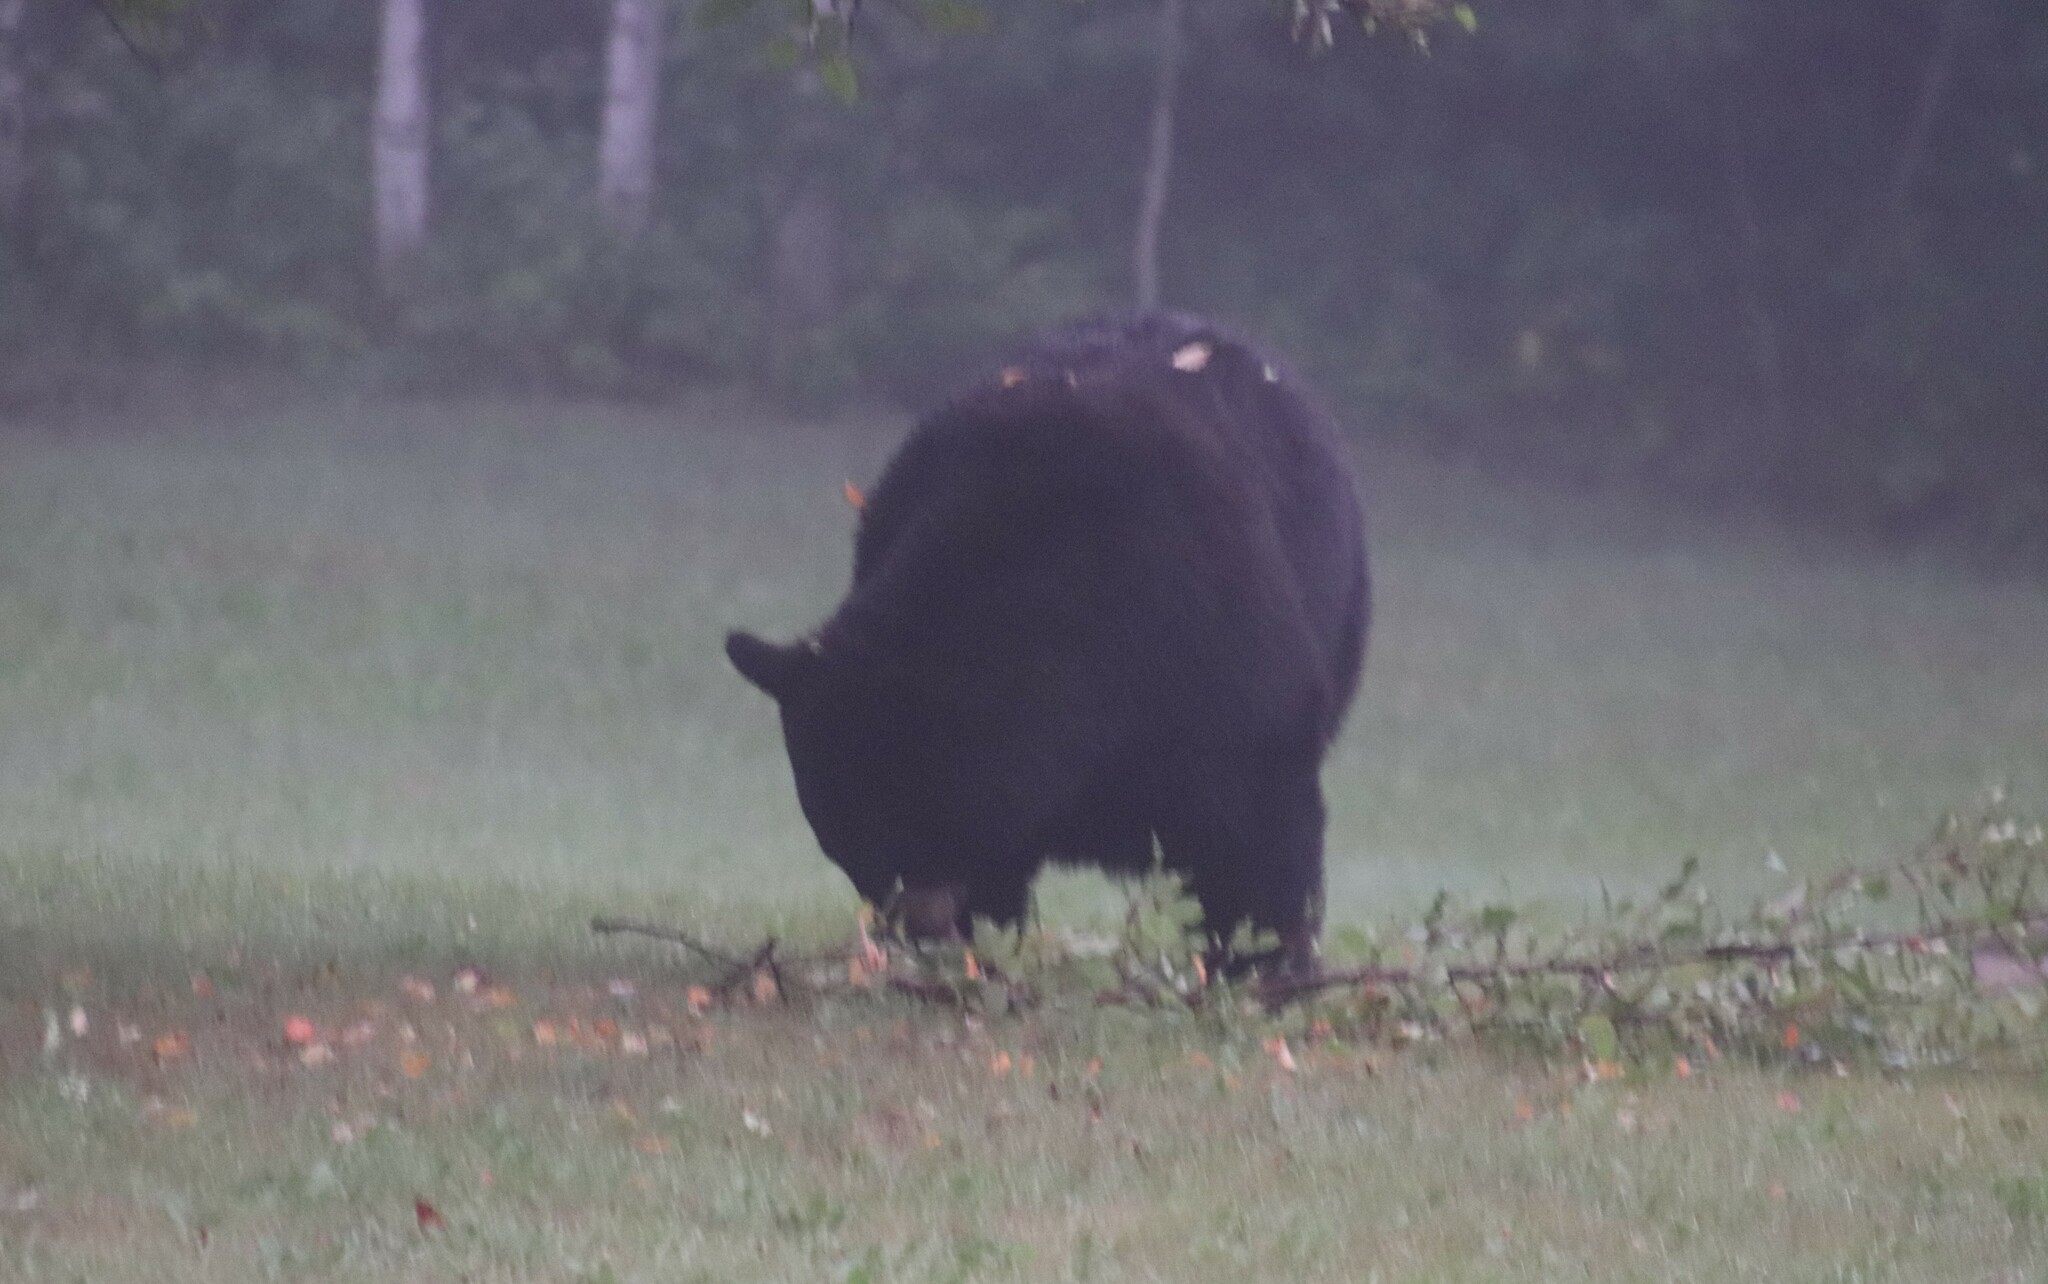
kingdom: Animalia
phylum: Chordata
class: Mammalia
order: Carnivora
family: Ursidae
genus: Ursus
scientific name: Ursus americanus
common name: American black bear
